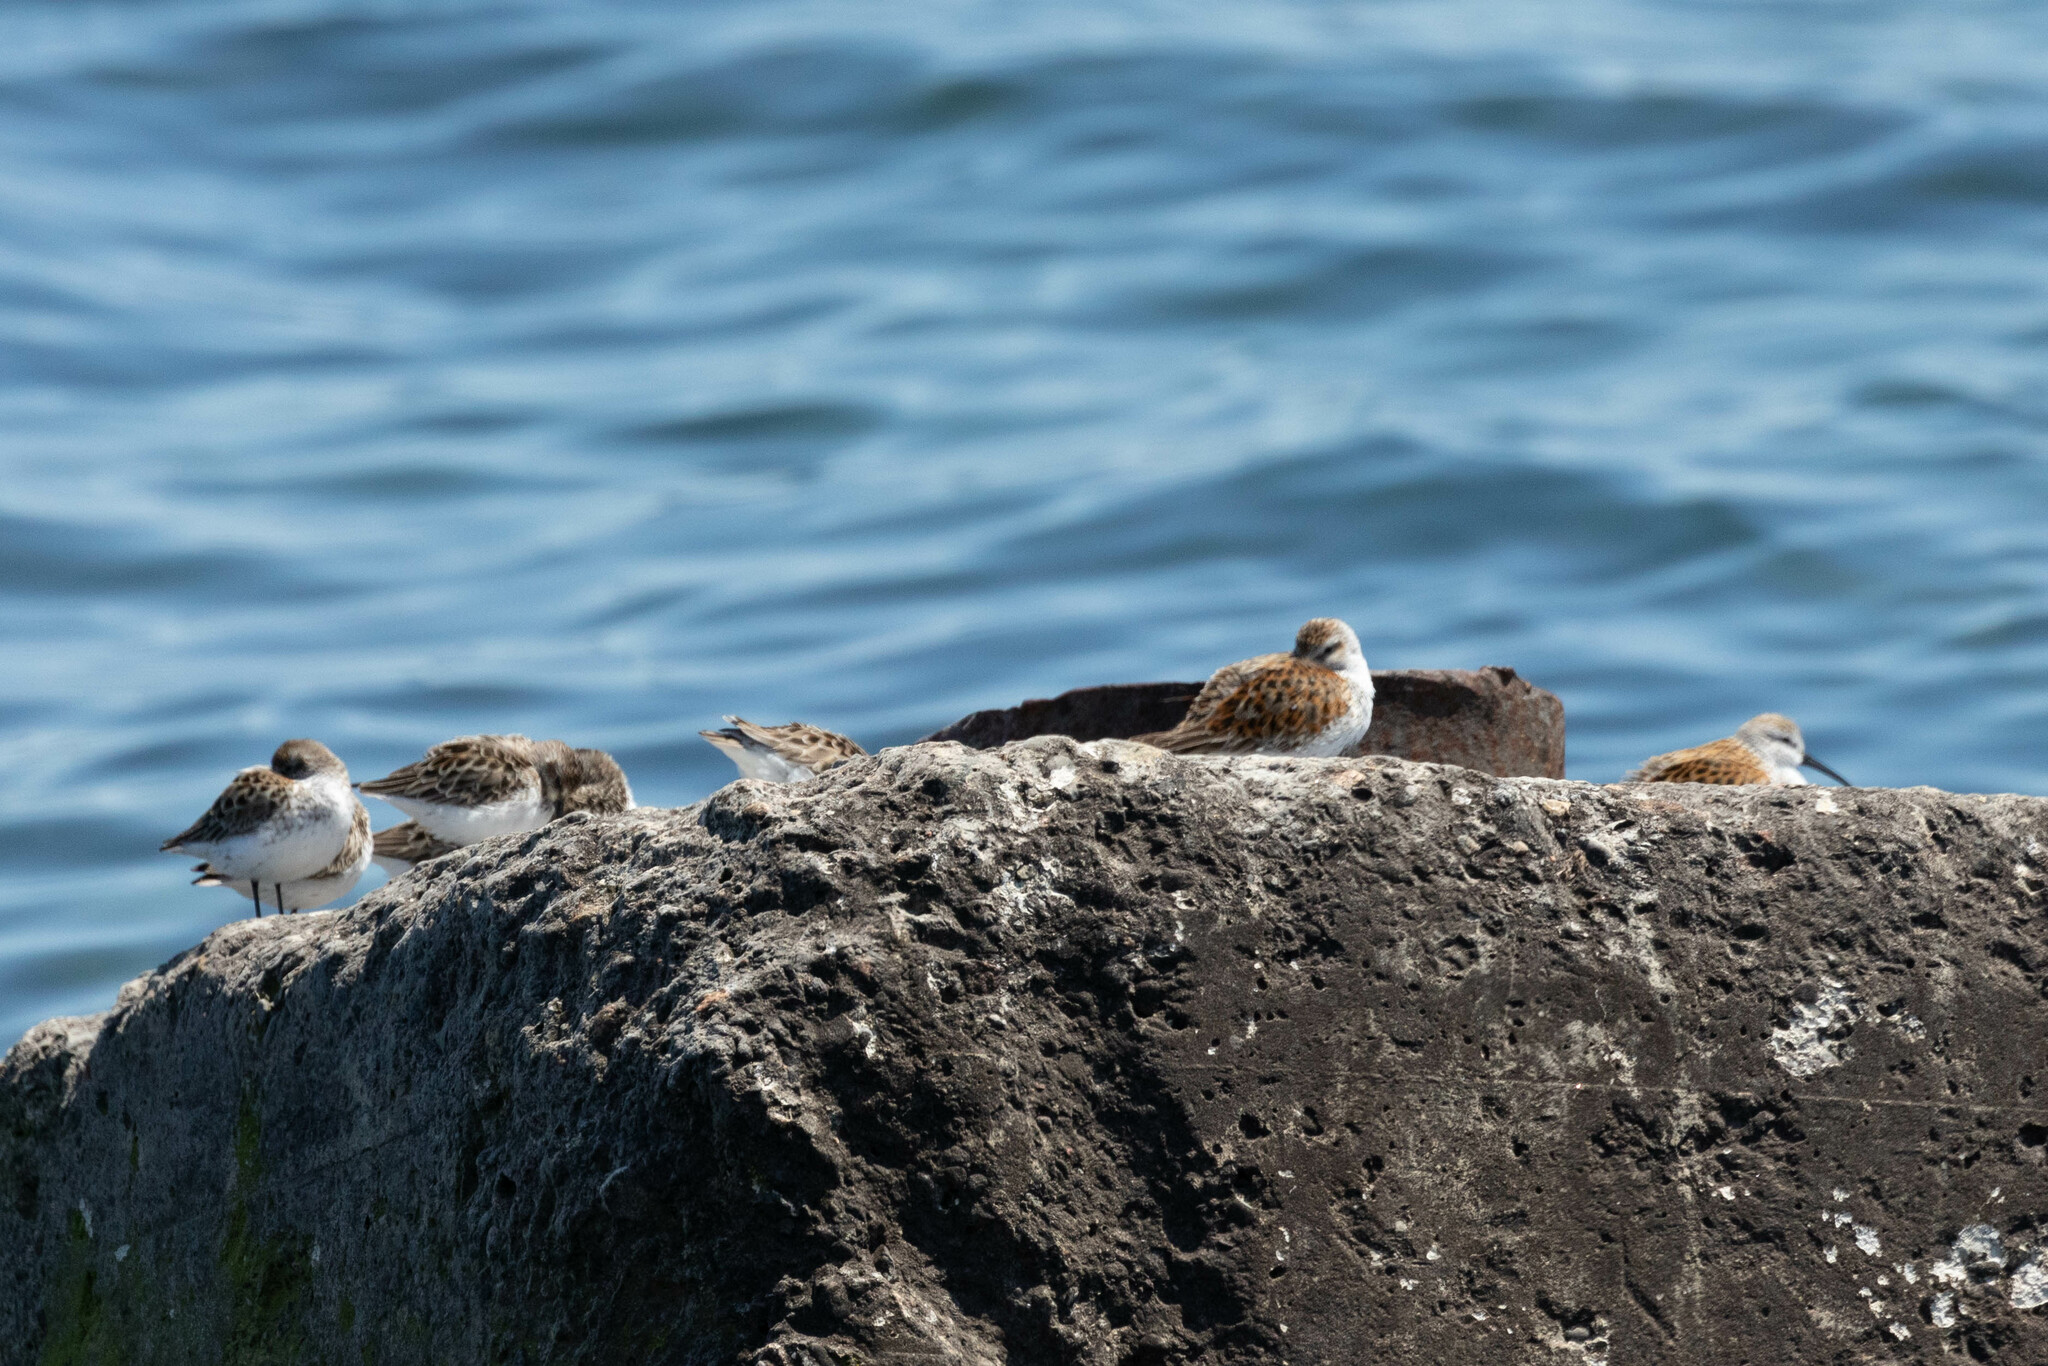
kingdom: Animalia
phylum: Chordata
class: Aves
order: Charadriiformes
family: Scolopacidae
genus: Calidris
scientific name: Calidris pusilla
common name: Semipalmated sandpiper
